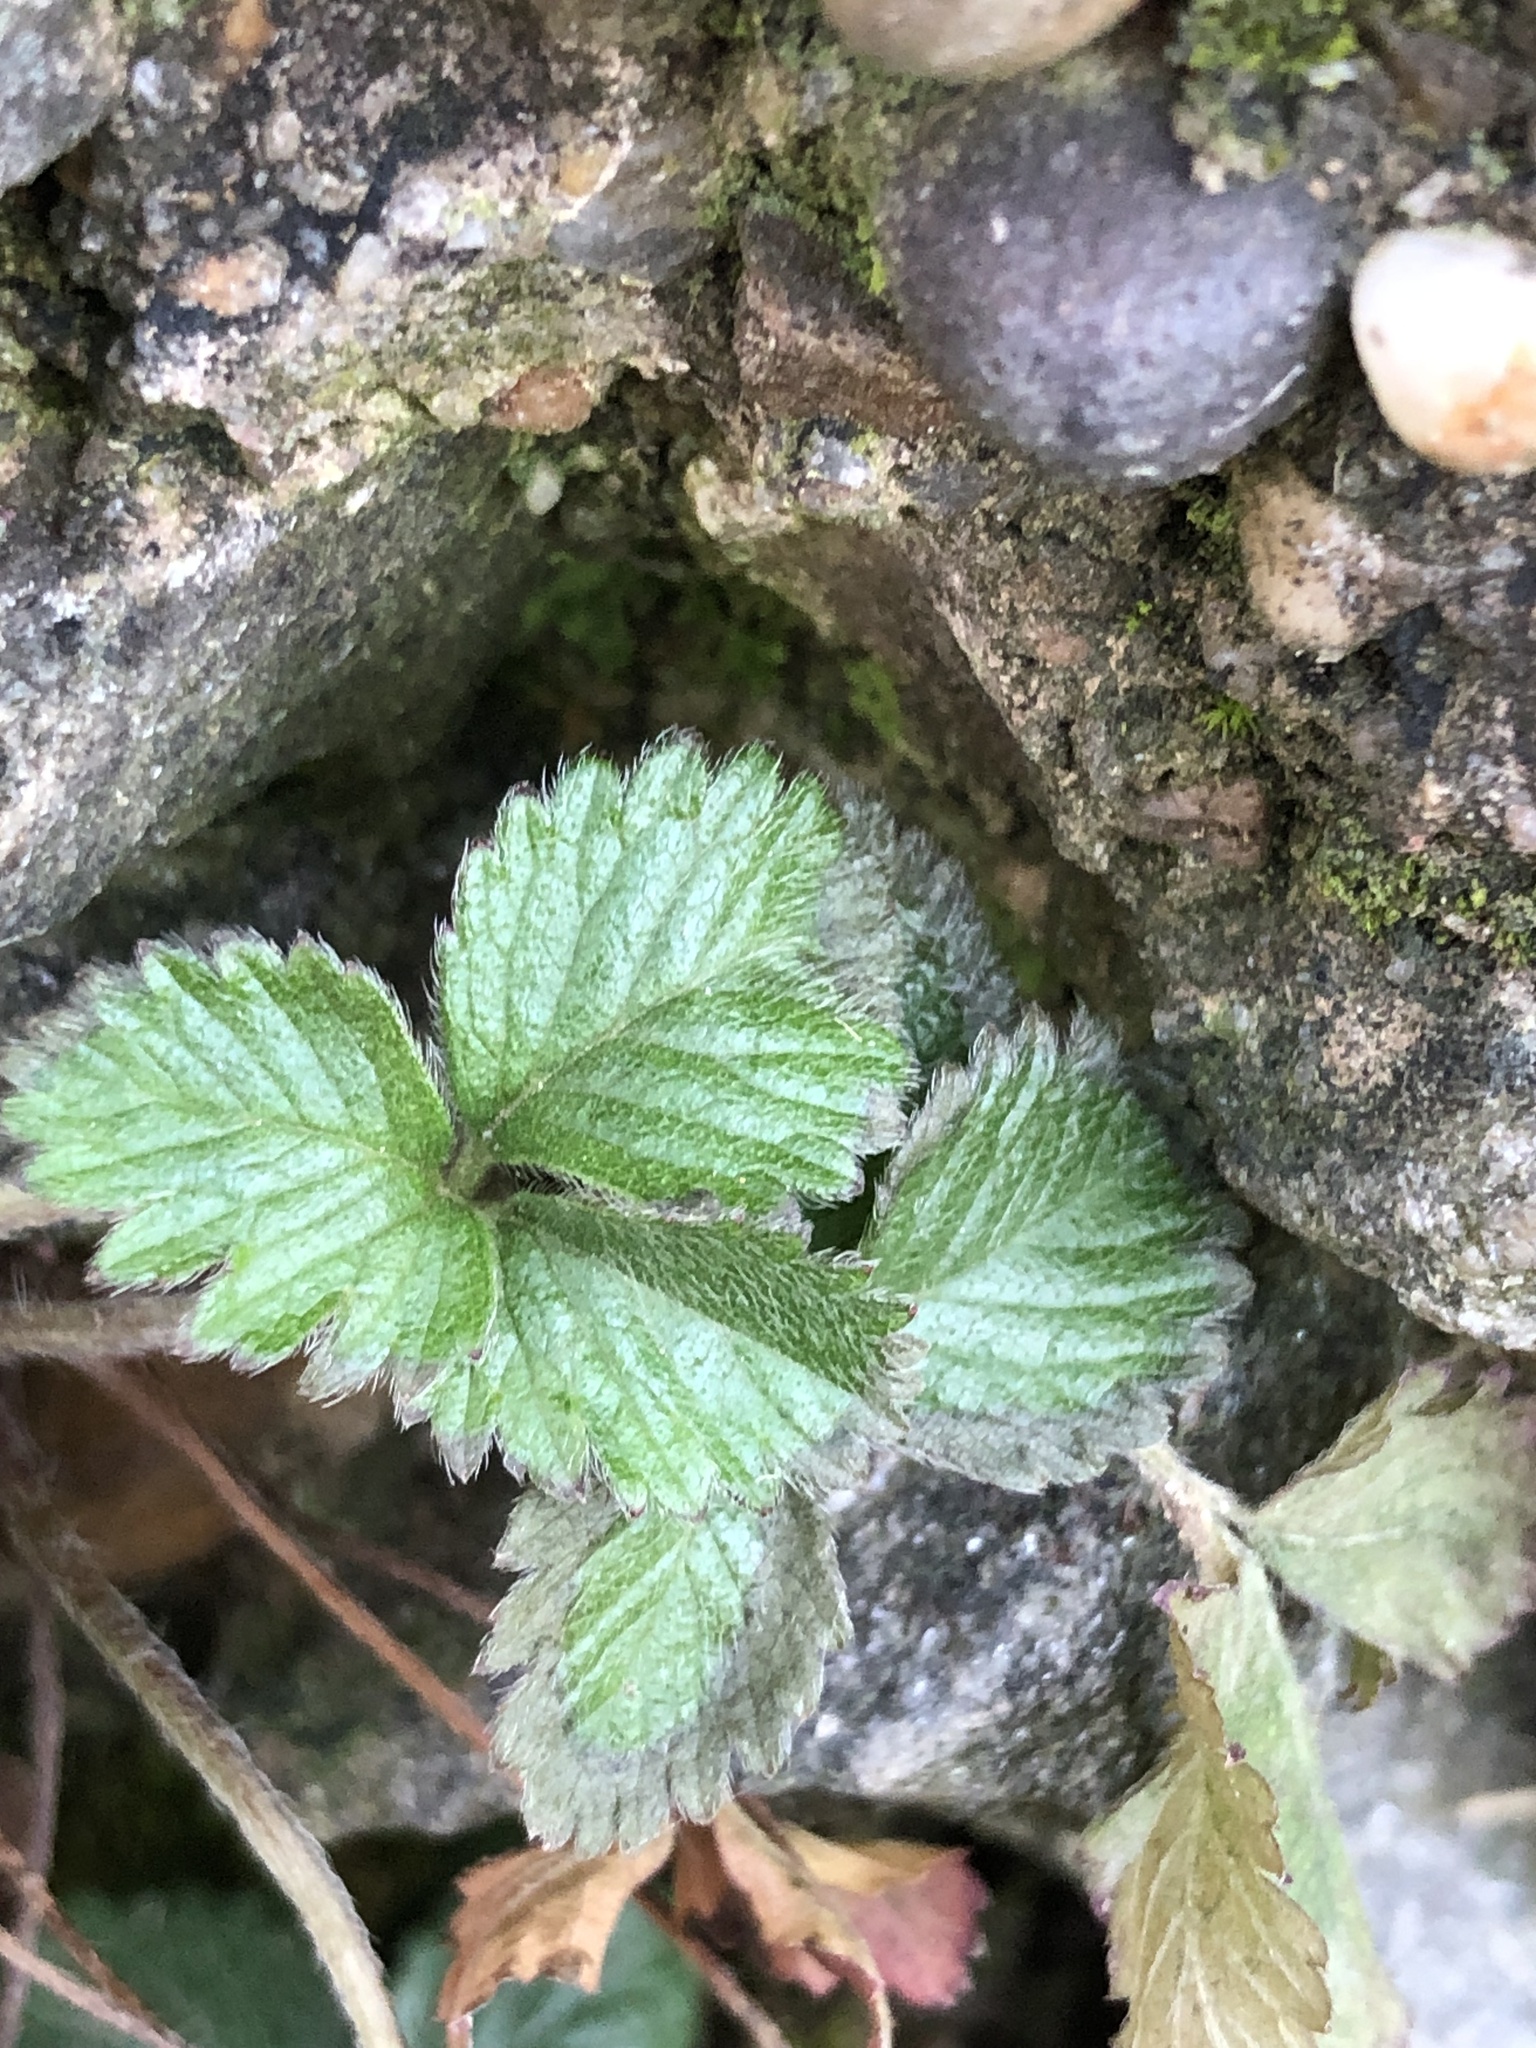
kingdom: Plantae
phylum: Tracheophyta
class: Magnoliopsida
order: Rosales
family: Rosaceae
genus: Potentilla
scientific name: Potentilla indica
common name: Yellow-flowered strawberry
